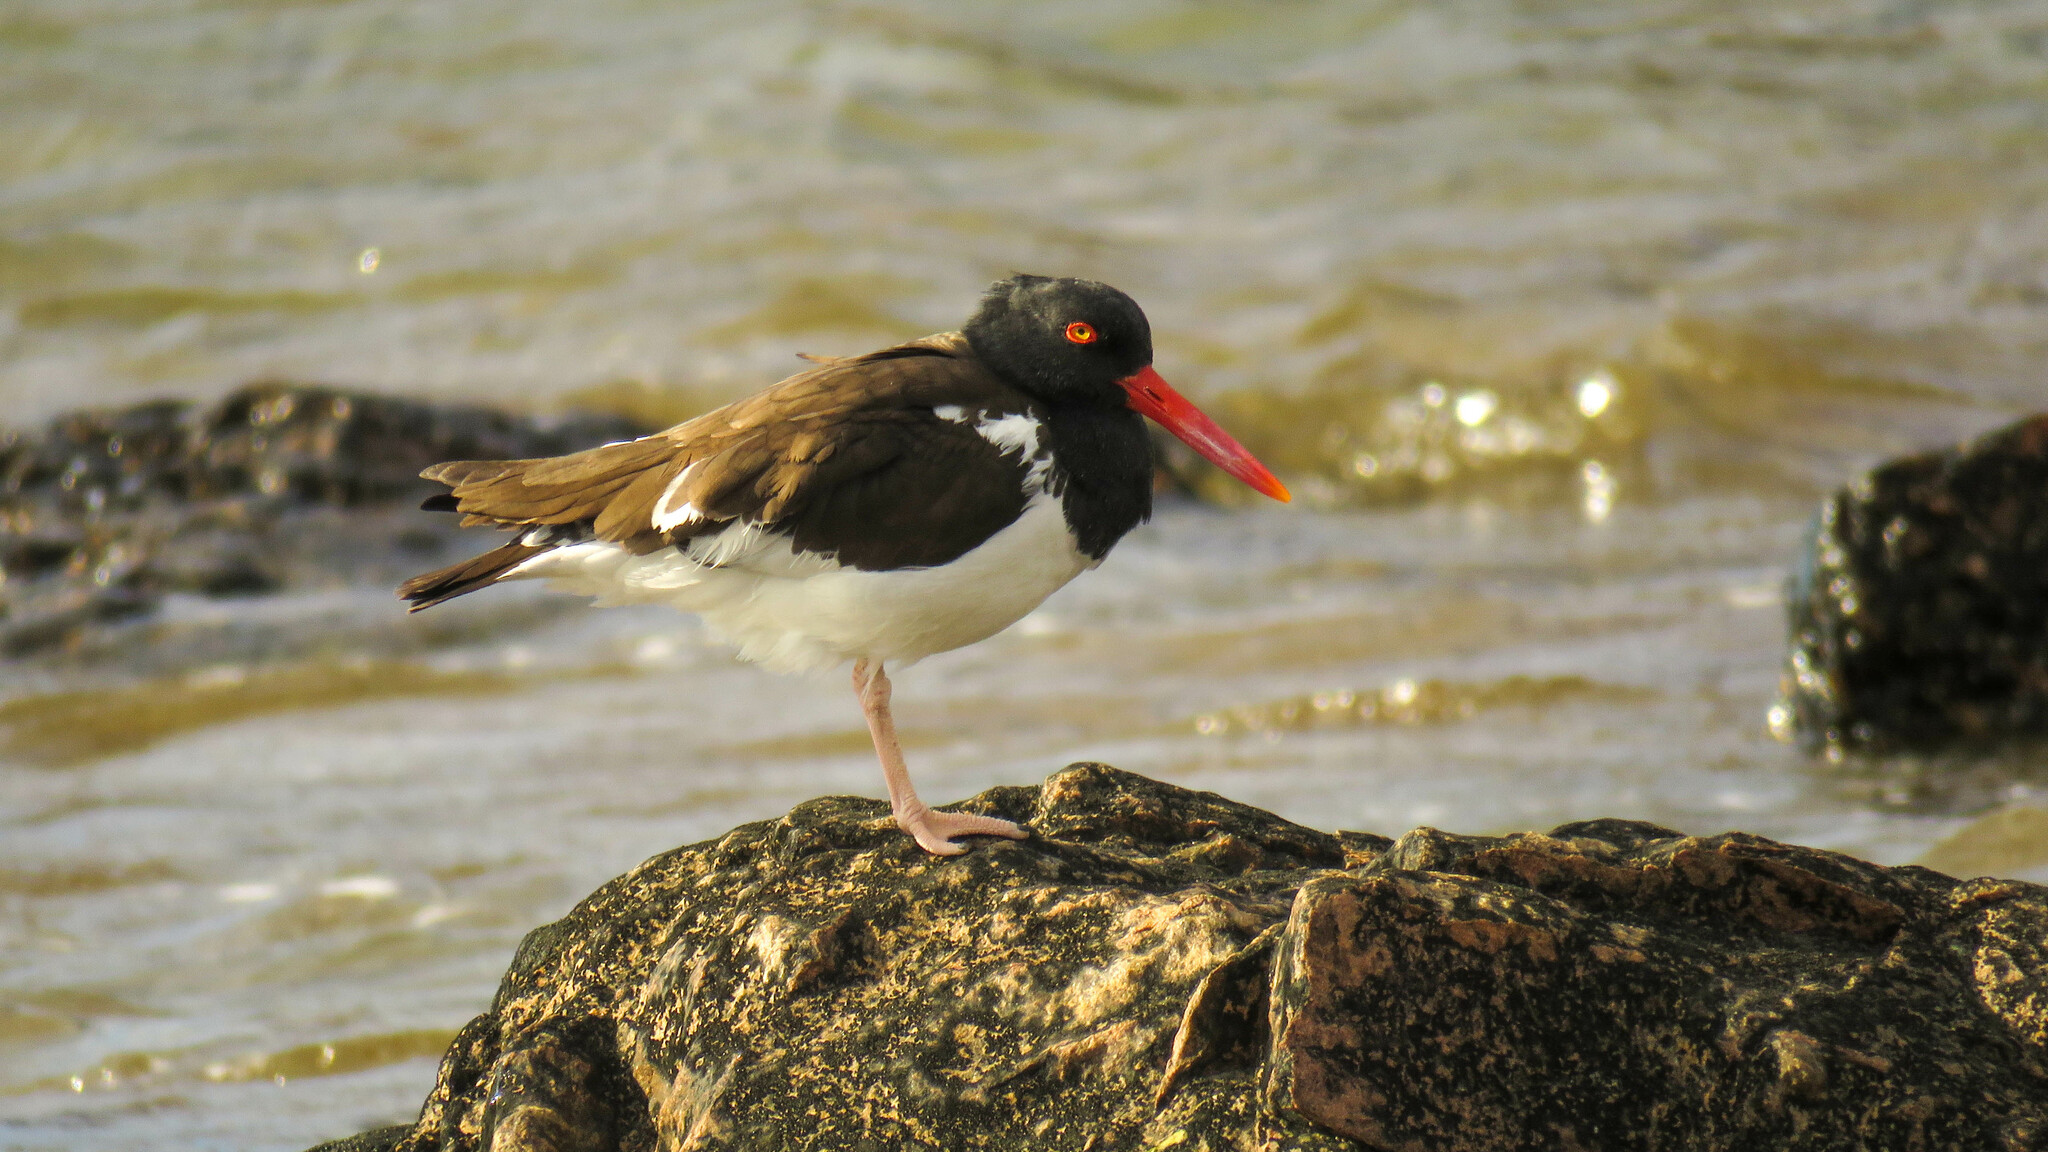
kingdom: Animalia
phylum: Chordata
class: Aves
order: Charadriiformes
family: Haematopodidae
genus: Haematopus
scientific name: Haematopus palliatus
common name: American oystercatcher
